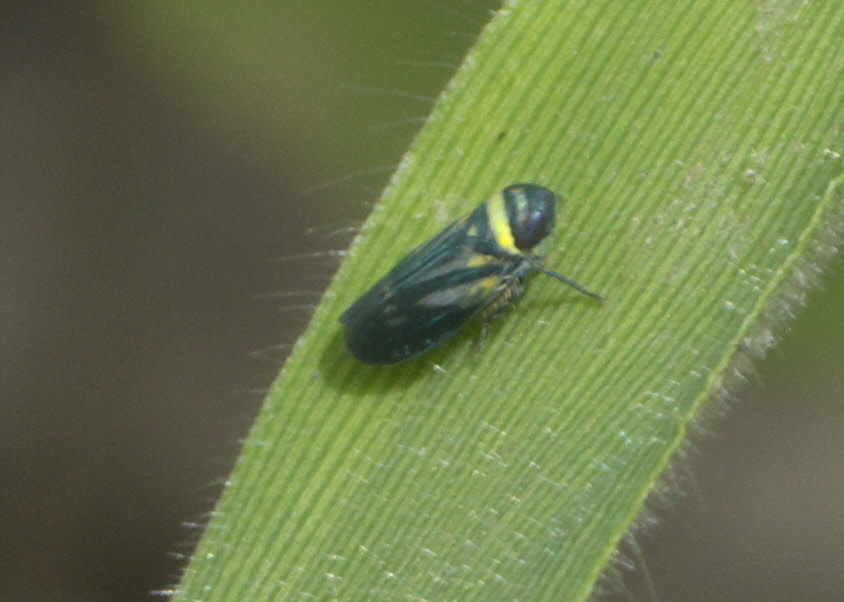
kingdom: Animalia
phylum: Arthropoda
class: Insecta
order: Hemiptera
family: Cicadellidae
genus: Stirellus
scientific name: Stirellus bicolor
